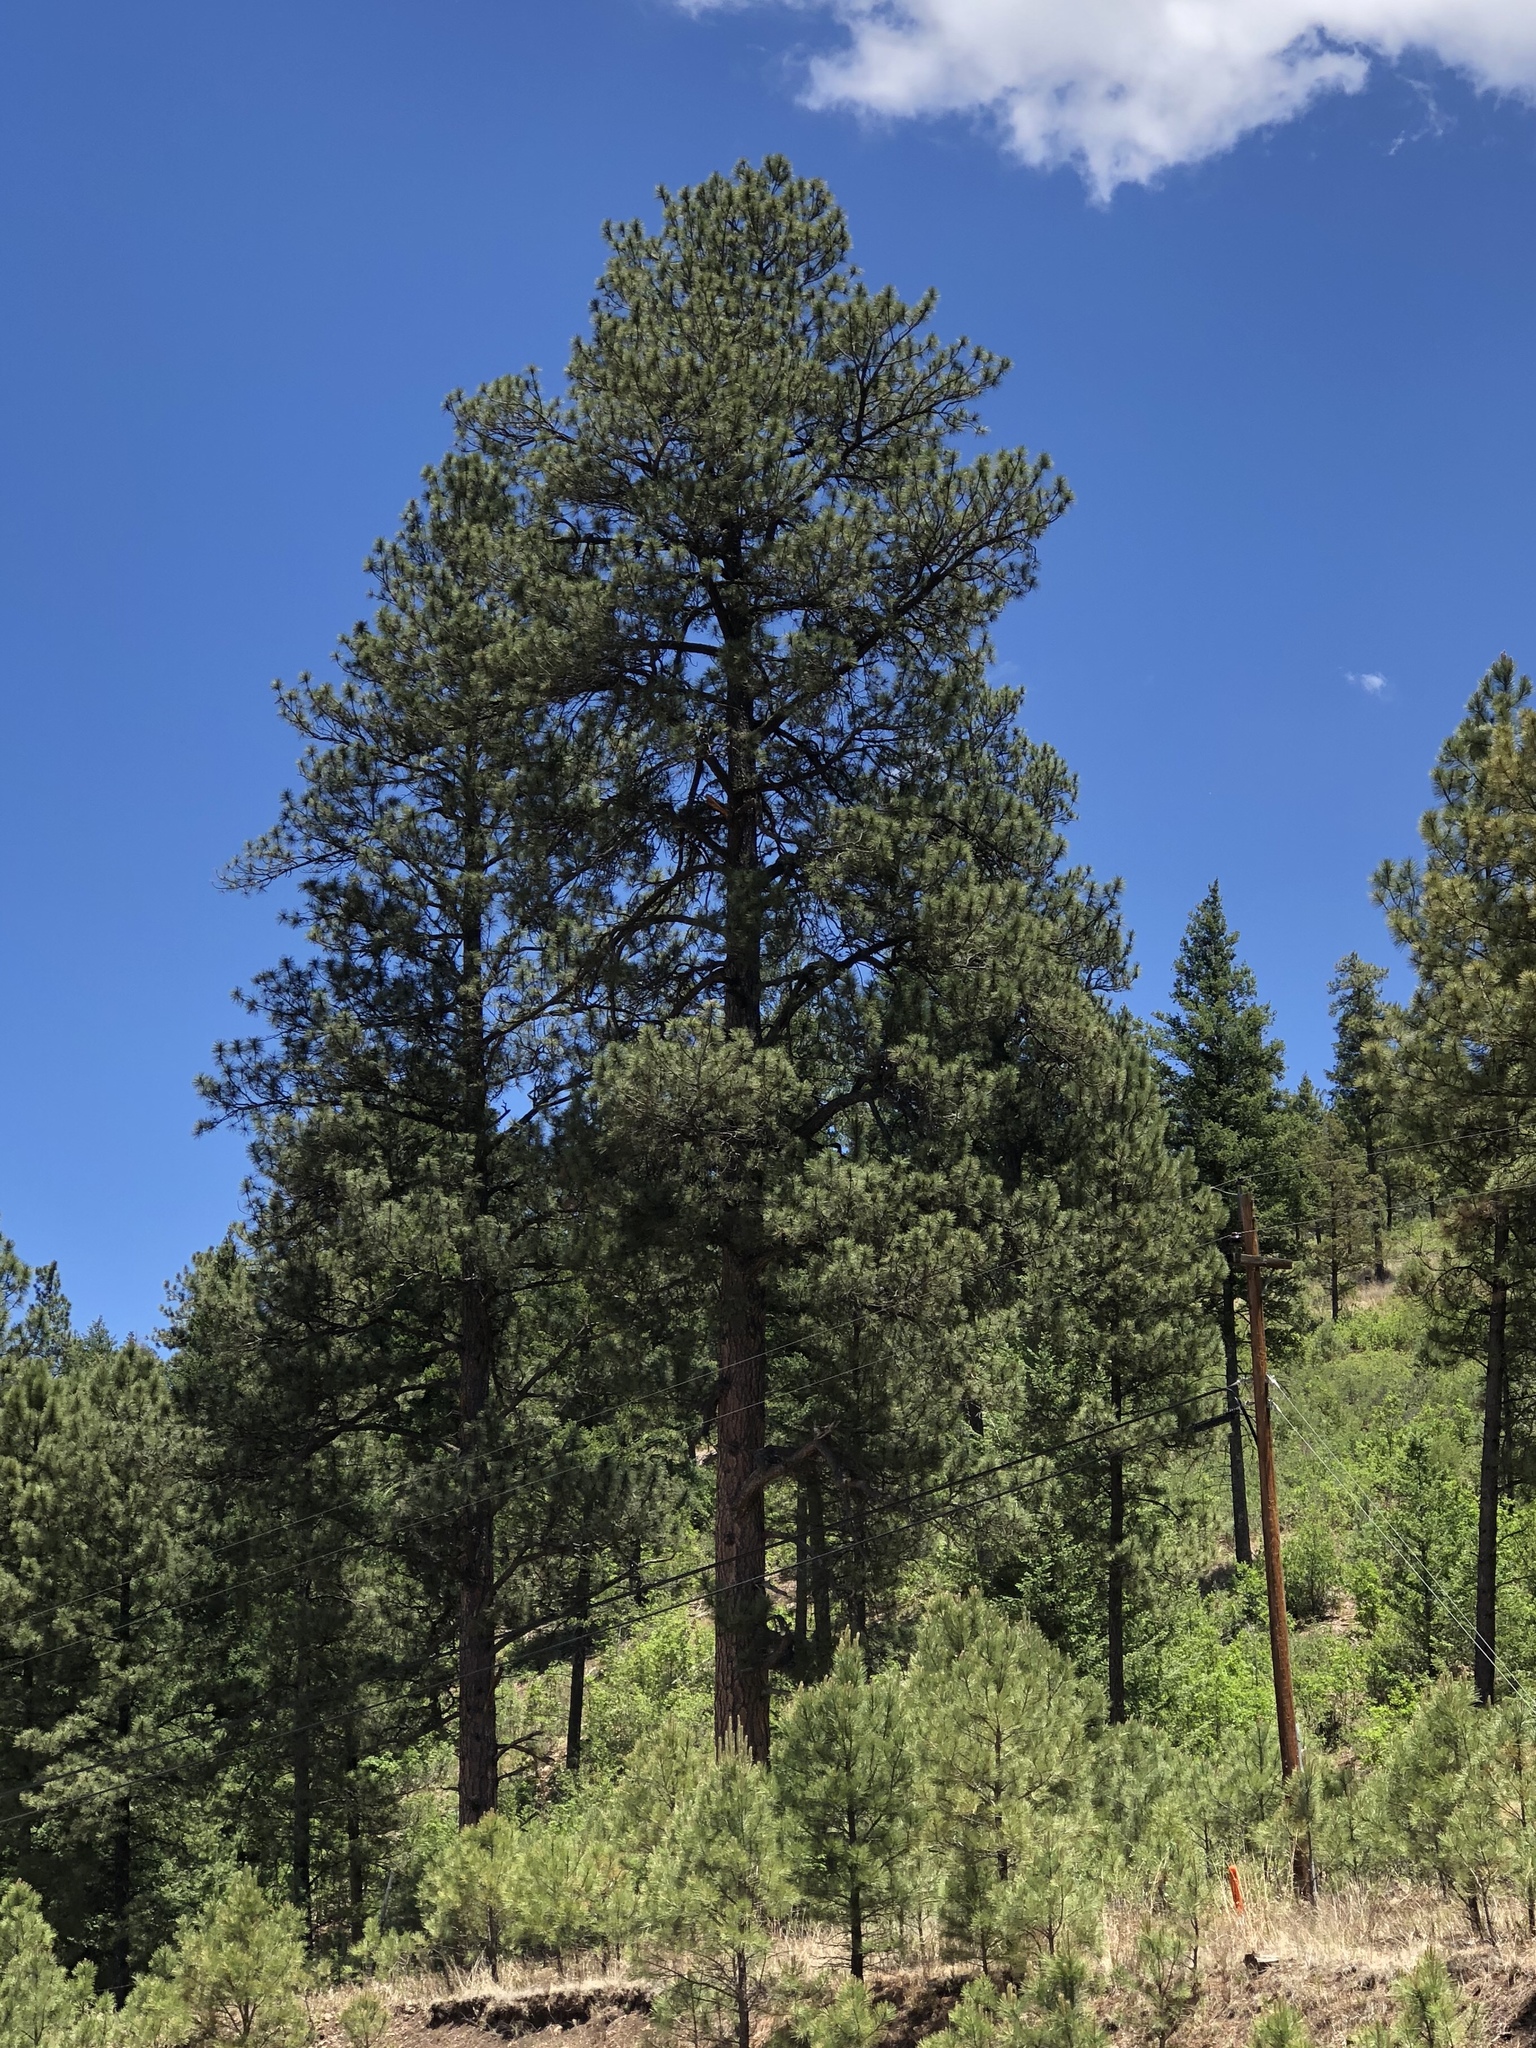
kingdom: Plantae
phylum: Tracheophyta
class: Pinopsida
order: Pinales
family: Pinaceae
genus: Pinus
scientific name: Pinus ponderosa
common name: Western yellow-pine
